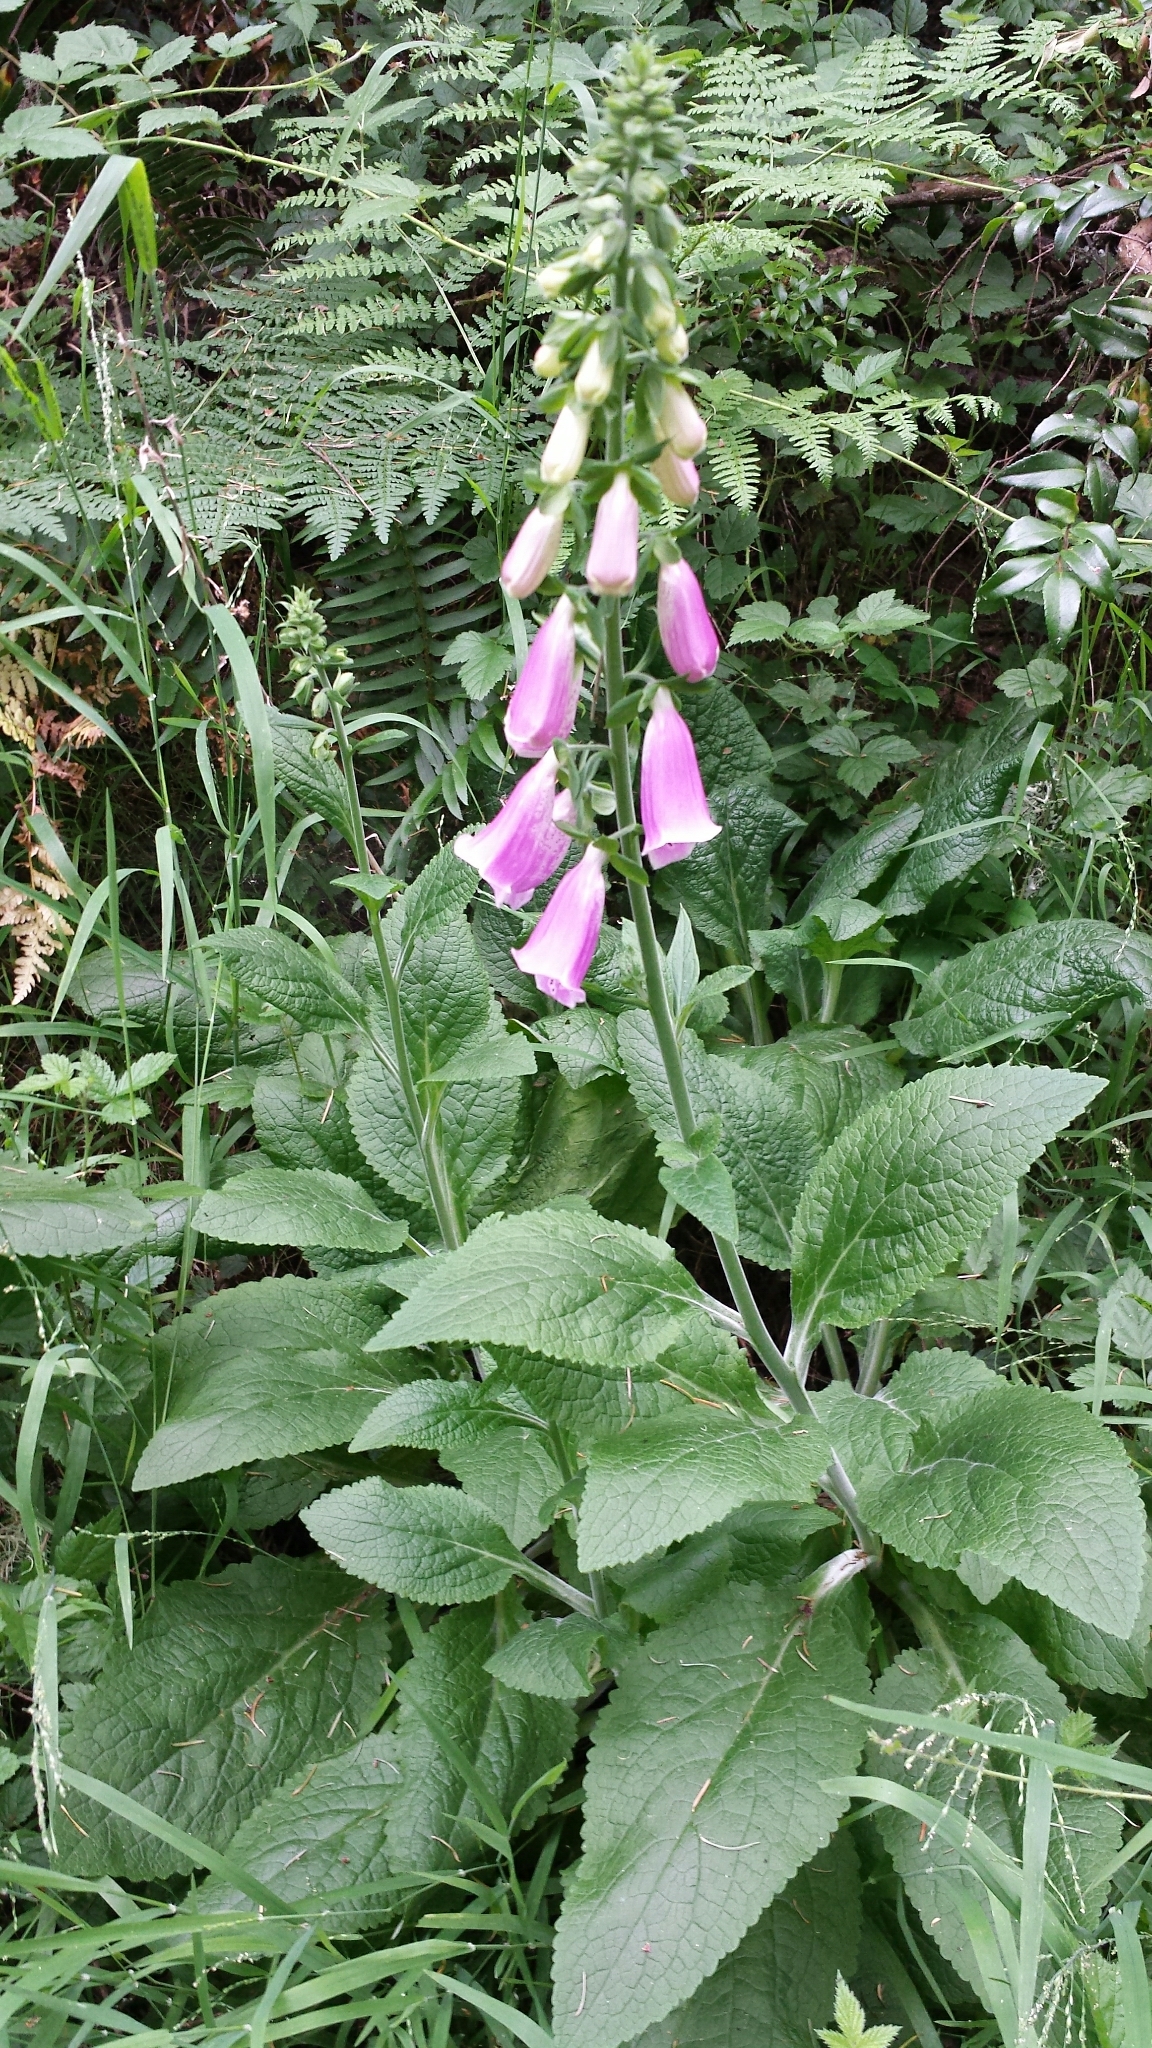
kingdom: Plantae
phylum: Tracheophyta
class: Magnoliopsida
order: Lamiales
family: Plantaginaceae
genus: Digitalis
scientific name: Digitalis purpurea
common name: Foxglove
